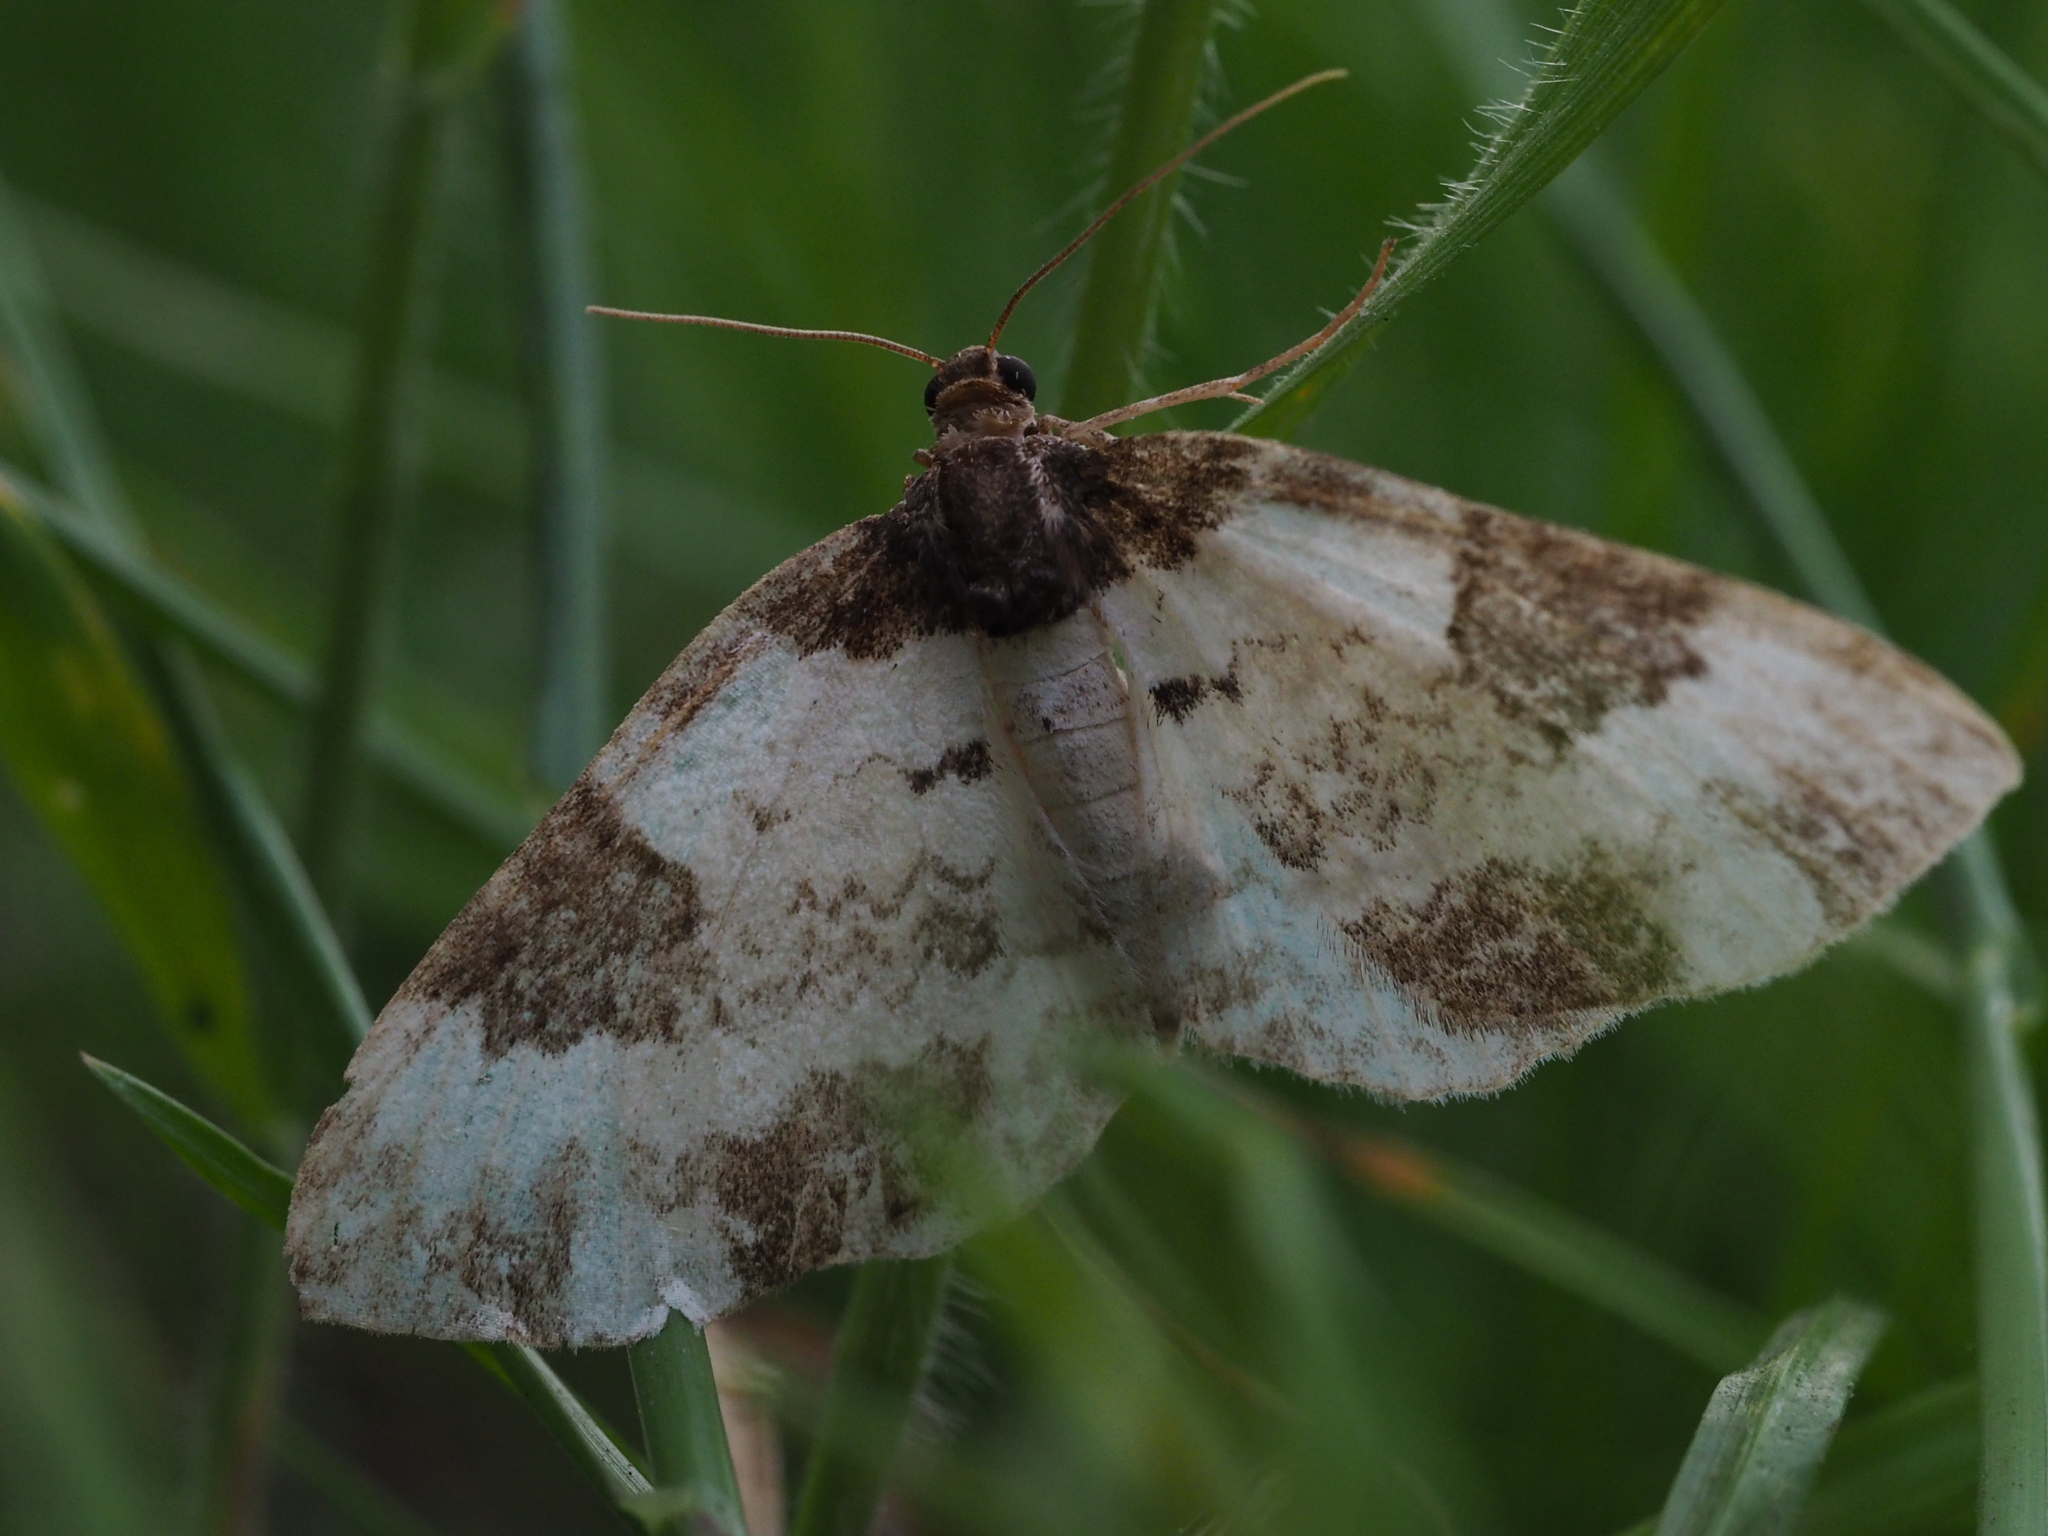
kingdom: Animalia
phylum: Arthropoda
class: Insecta
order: Lepidoptera
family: Geometridae
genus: Melanthia
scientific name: Melanthia procellata
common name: Pretty chalk carpet
